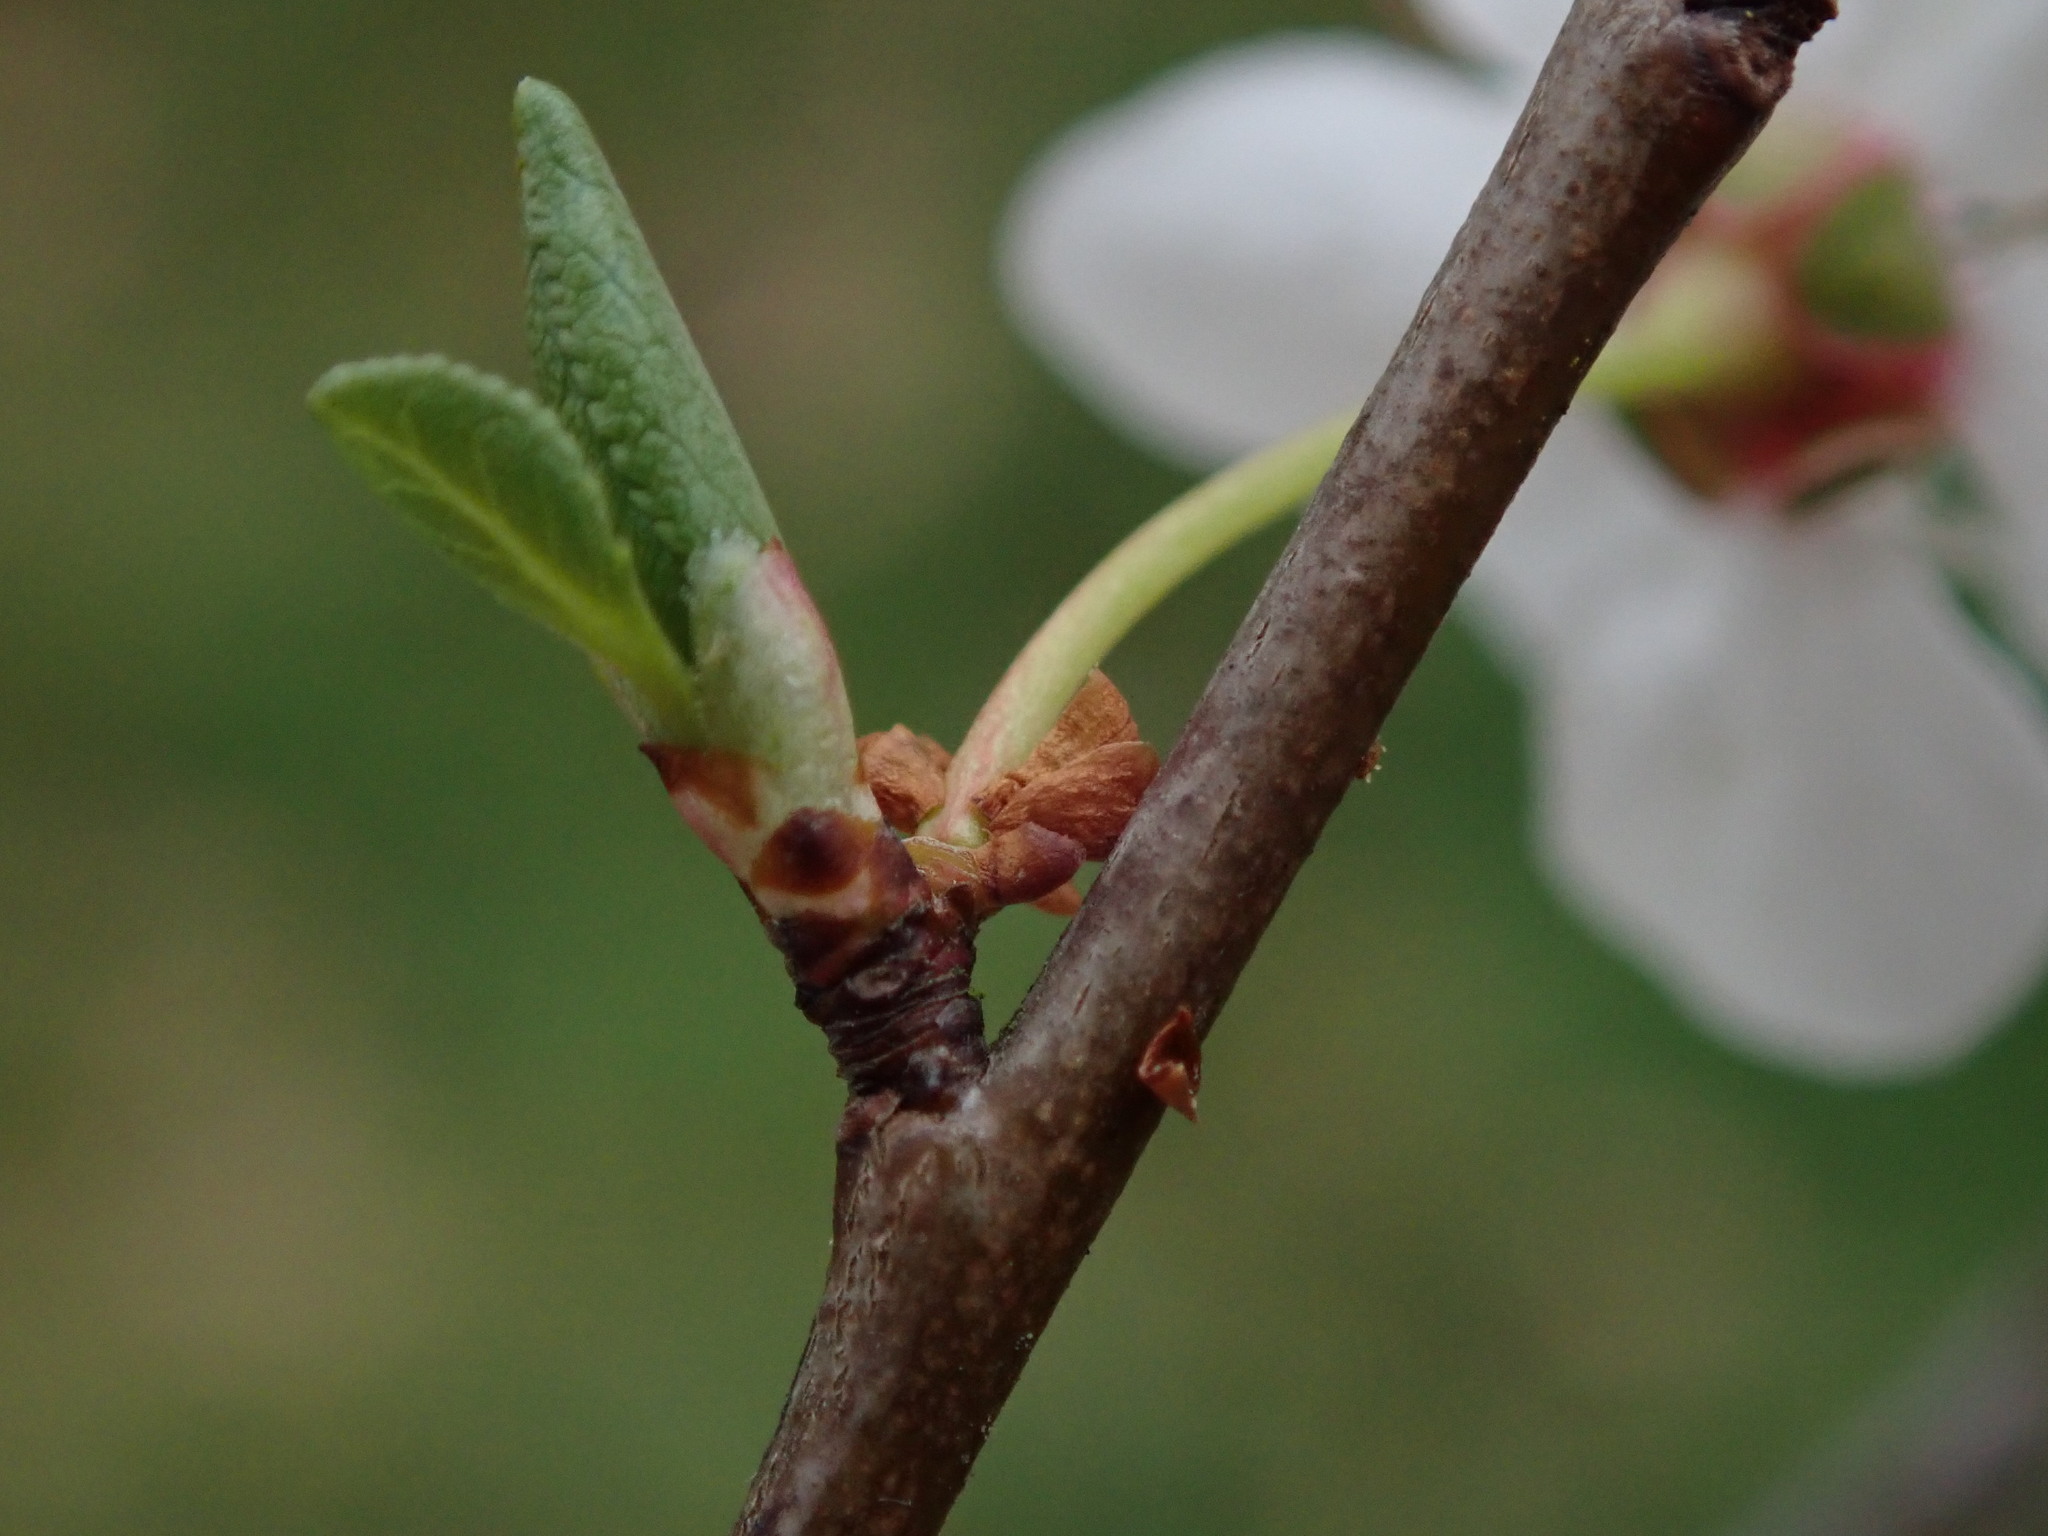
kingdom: Plantae
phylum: Tracheophyta
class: Magnoliopsida
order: Rosales
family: Rosaceae
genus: Prunus
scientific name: Prunus cerasifera
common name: Cherry plum
